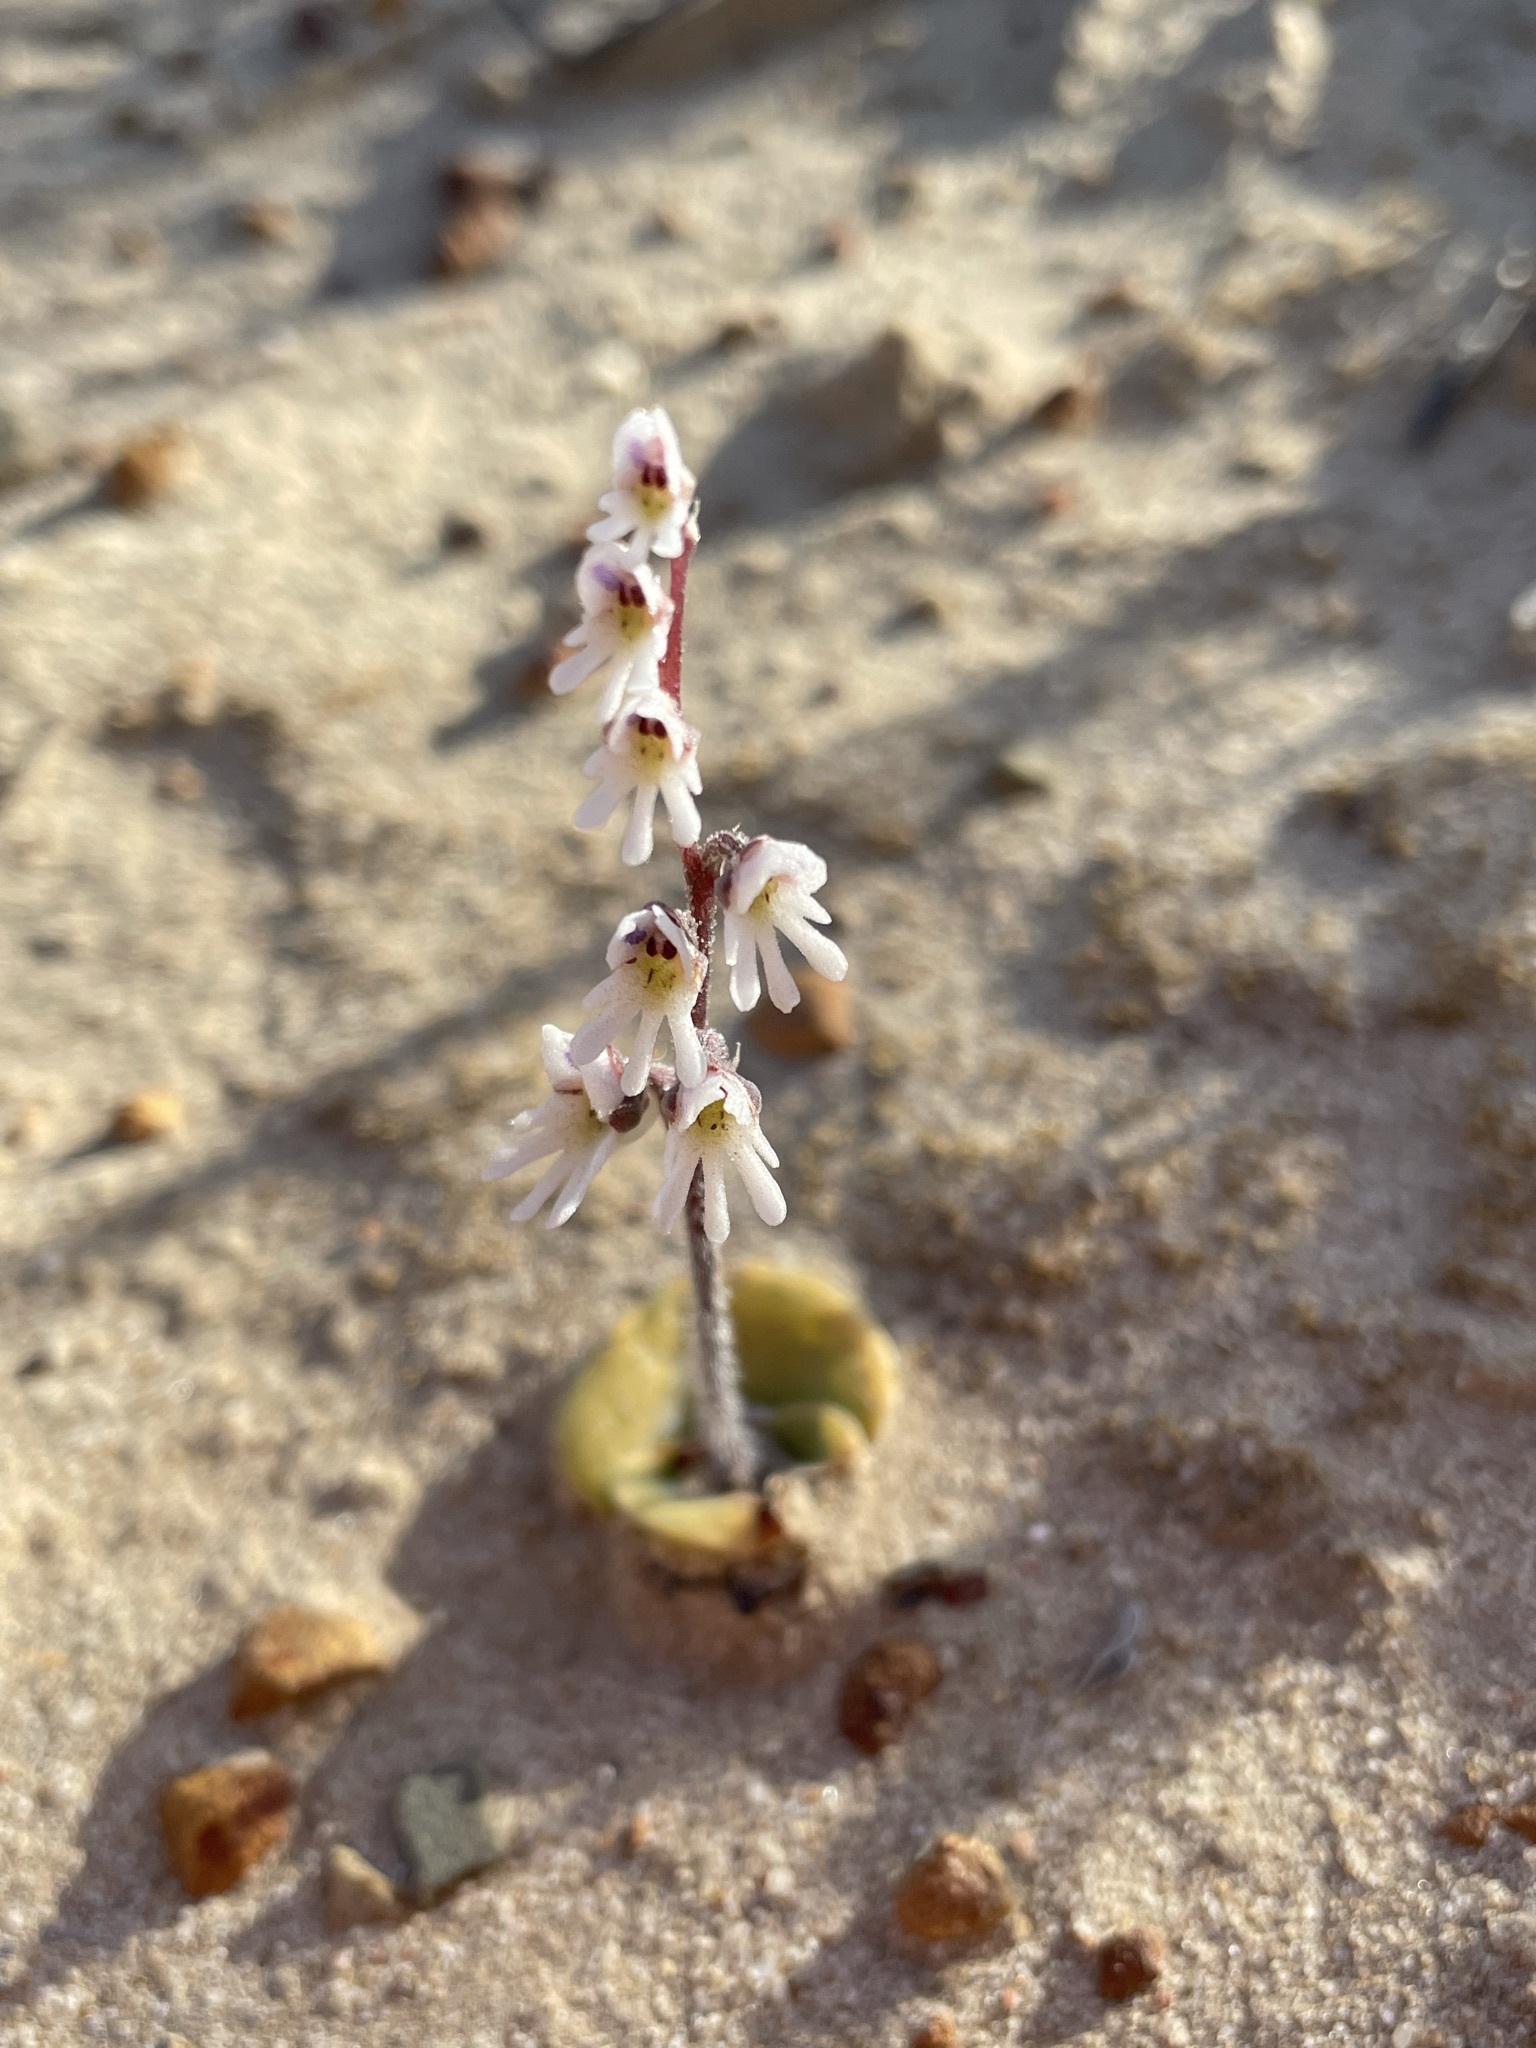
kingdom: Plantae
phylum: Tracheophyta
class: Liliopsida
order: Asparagales
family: Orchidaceae
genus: Holothrix
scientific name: Holothrix aspera
